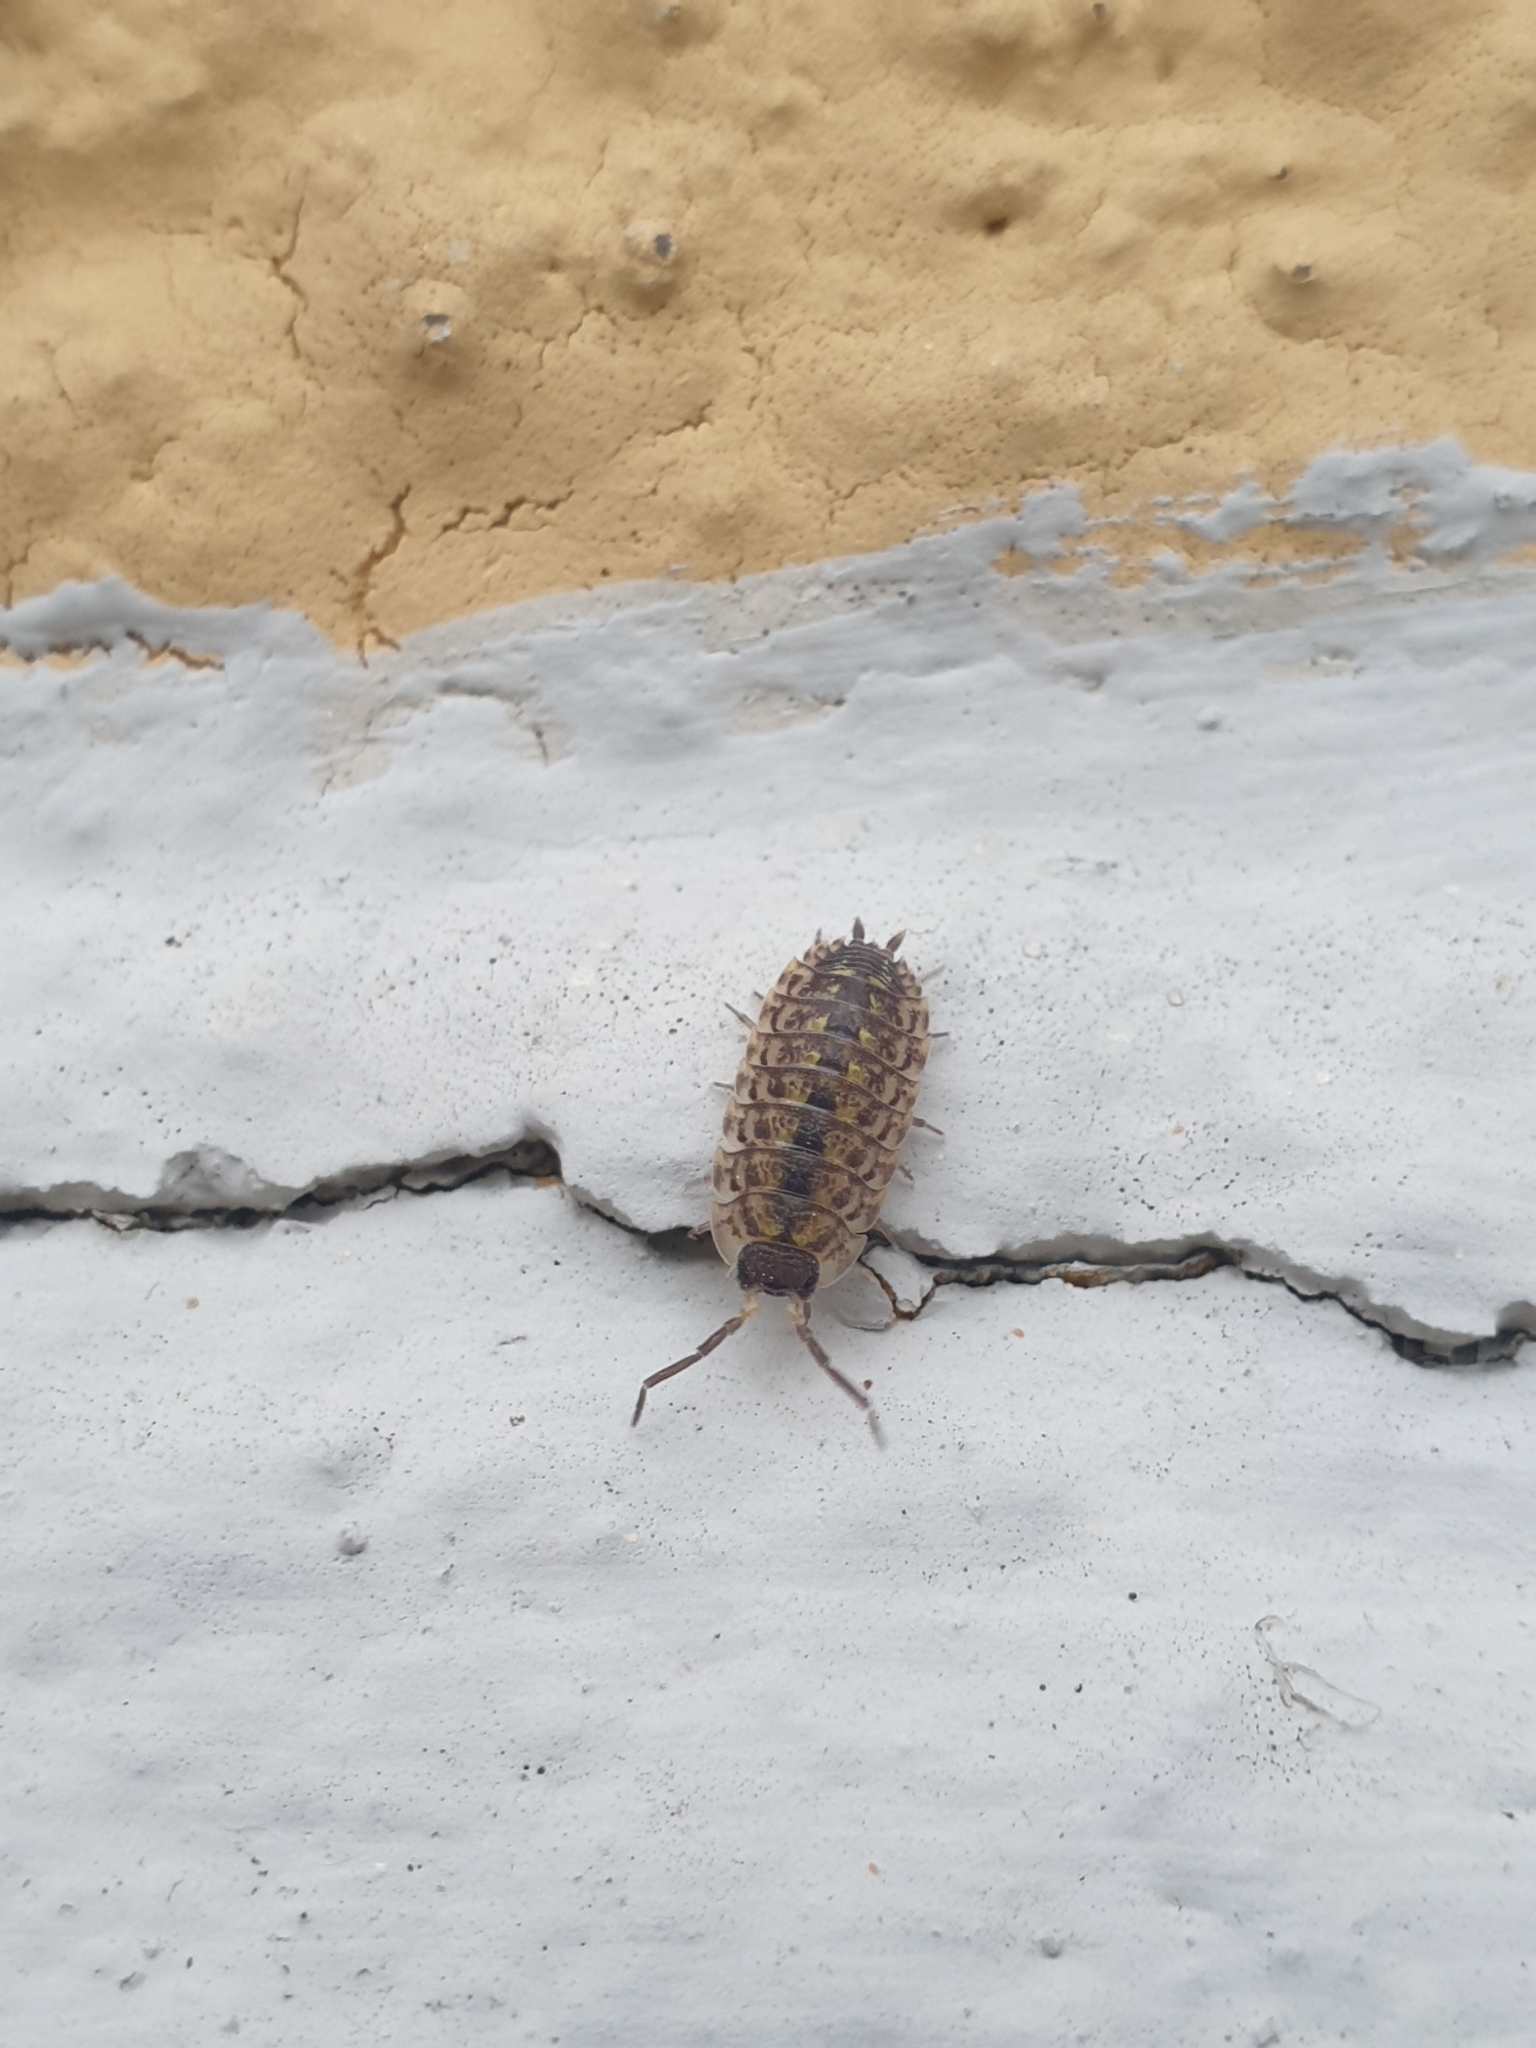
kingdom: Animalia
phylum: Arthropoda
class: Malacostraca
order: Isopoda
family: Porcellionidae
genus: Porcellio
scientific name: Porcellio spinicornis
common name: Painted woodlouse
